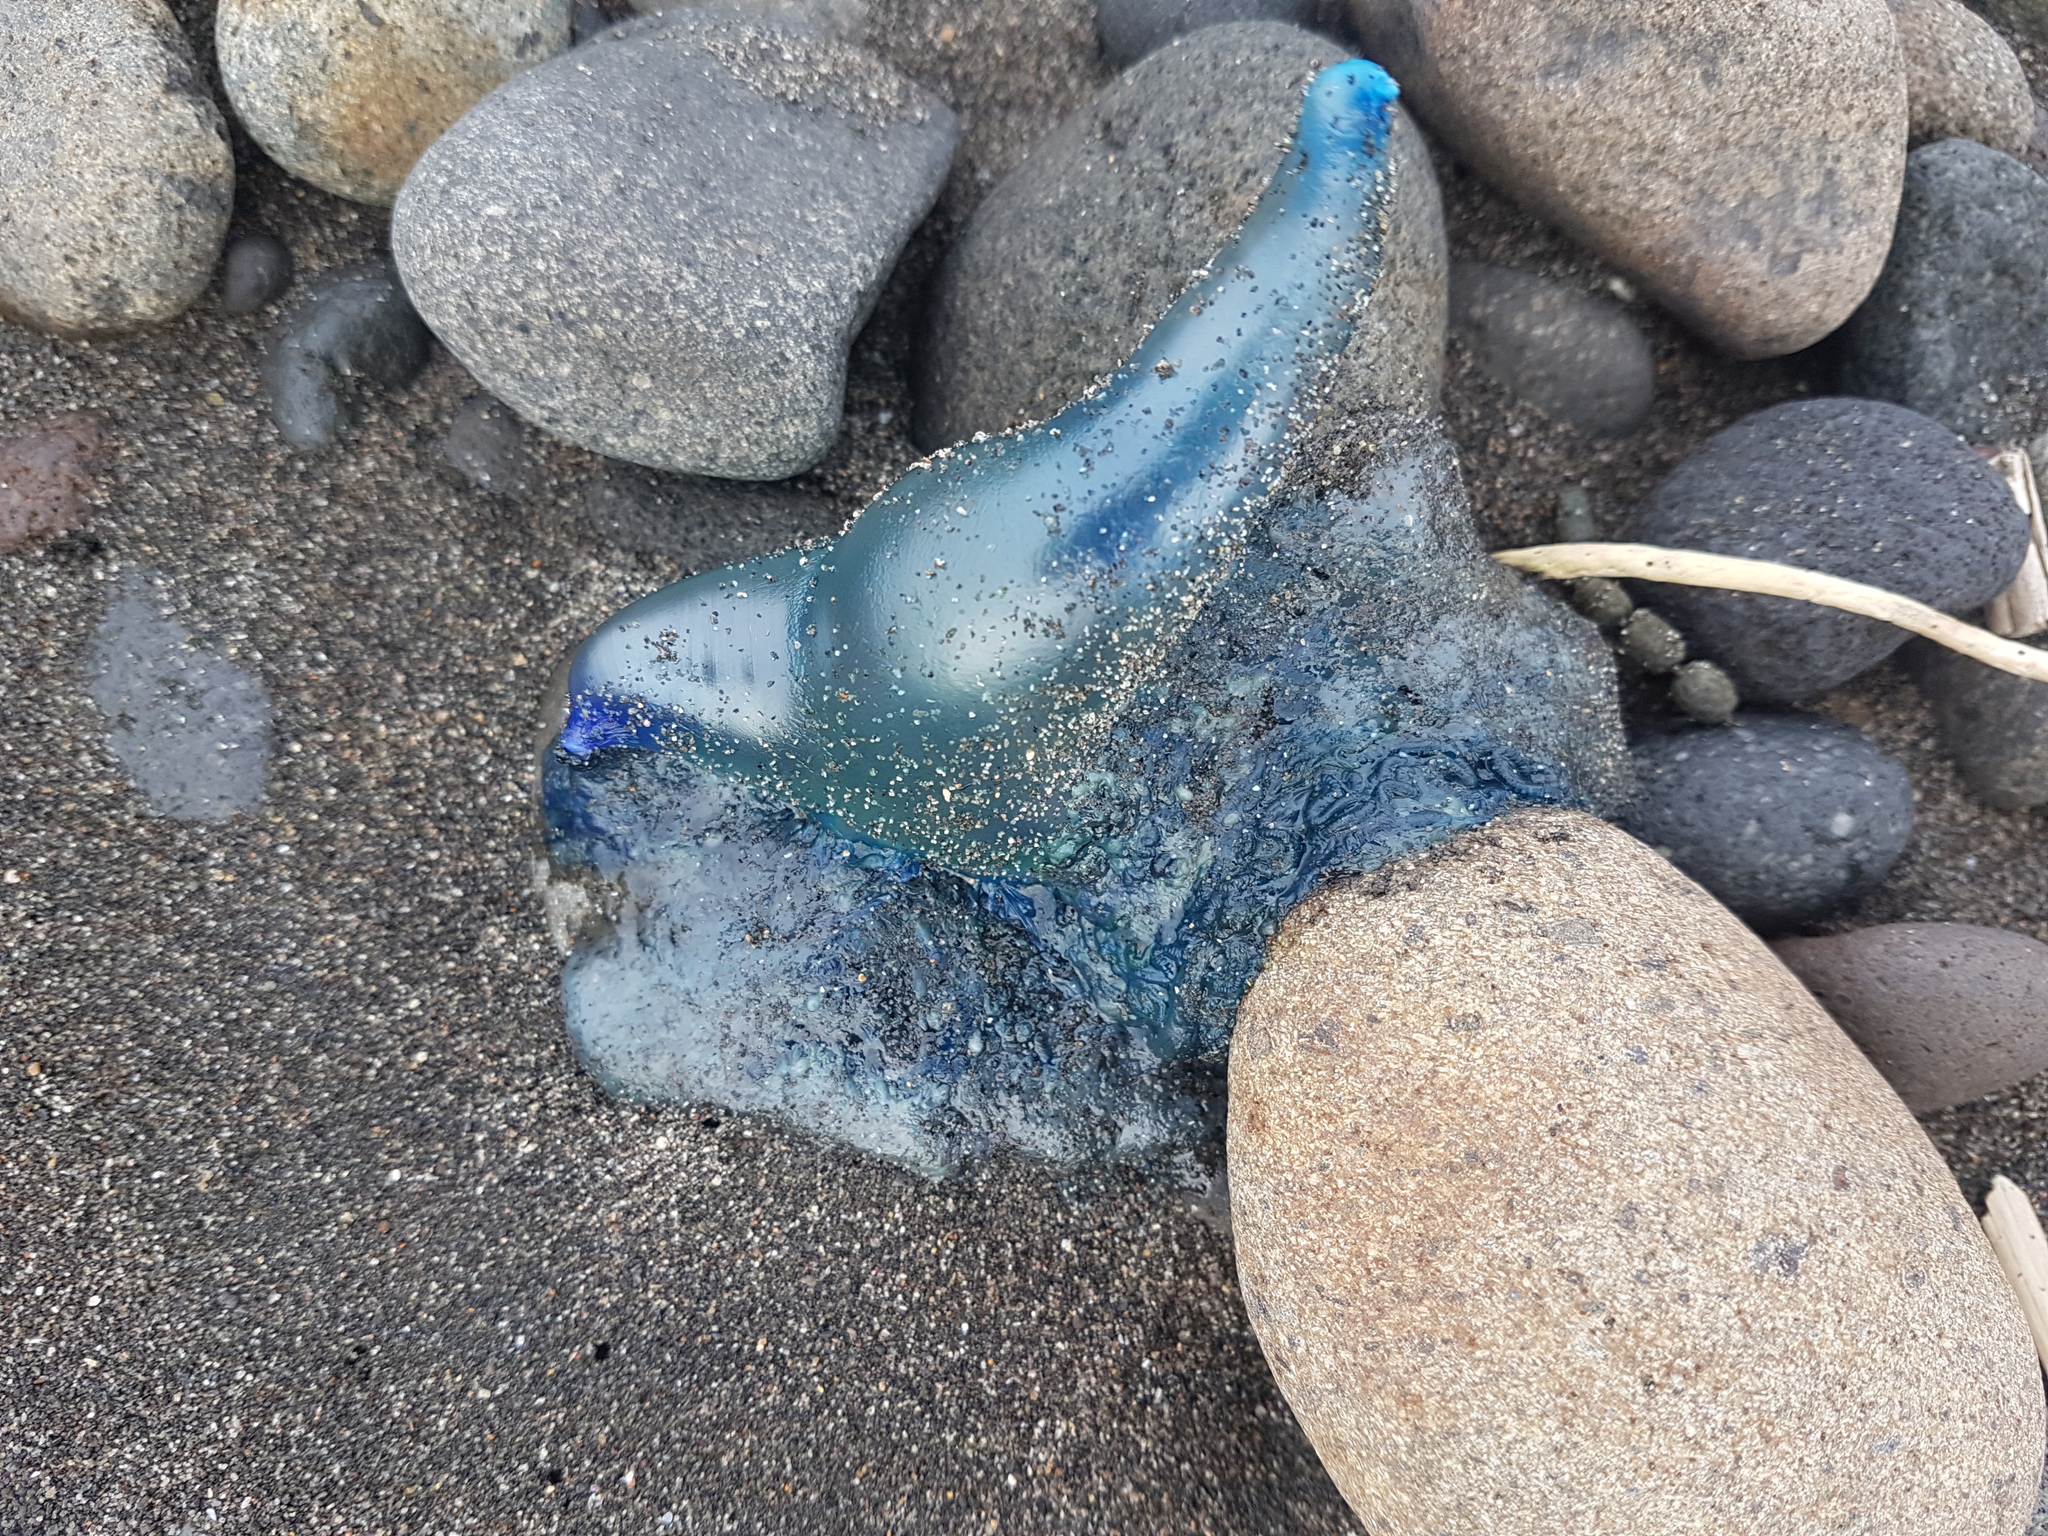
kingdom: Animalia
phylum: Cnidaria
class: Hydrozoa
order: Siphonophorae
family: Physaliidae
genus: Physalia
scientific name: Physalia physalis
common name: Portuguese man-of-war
